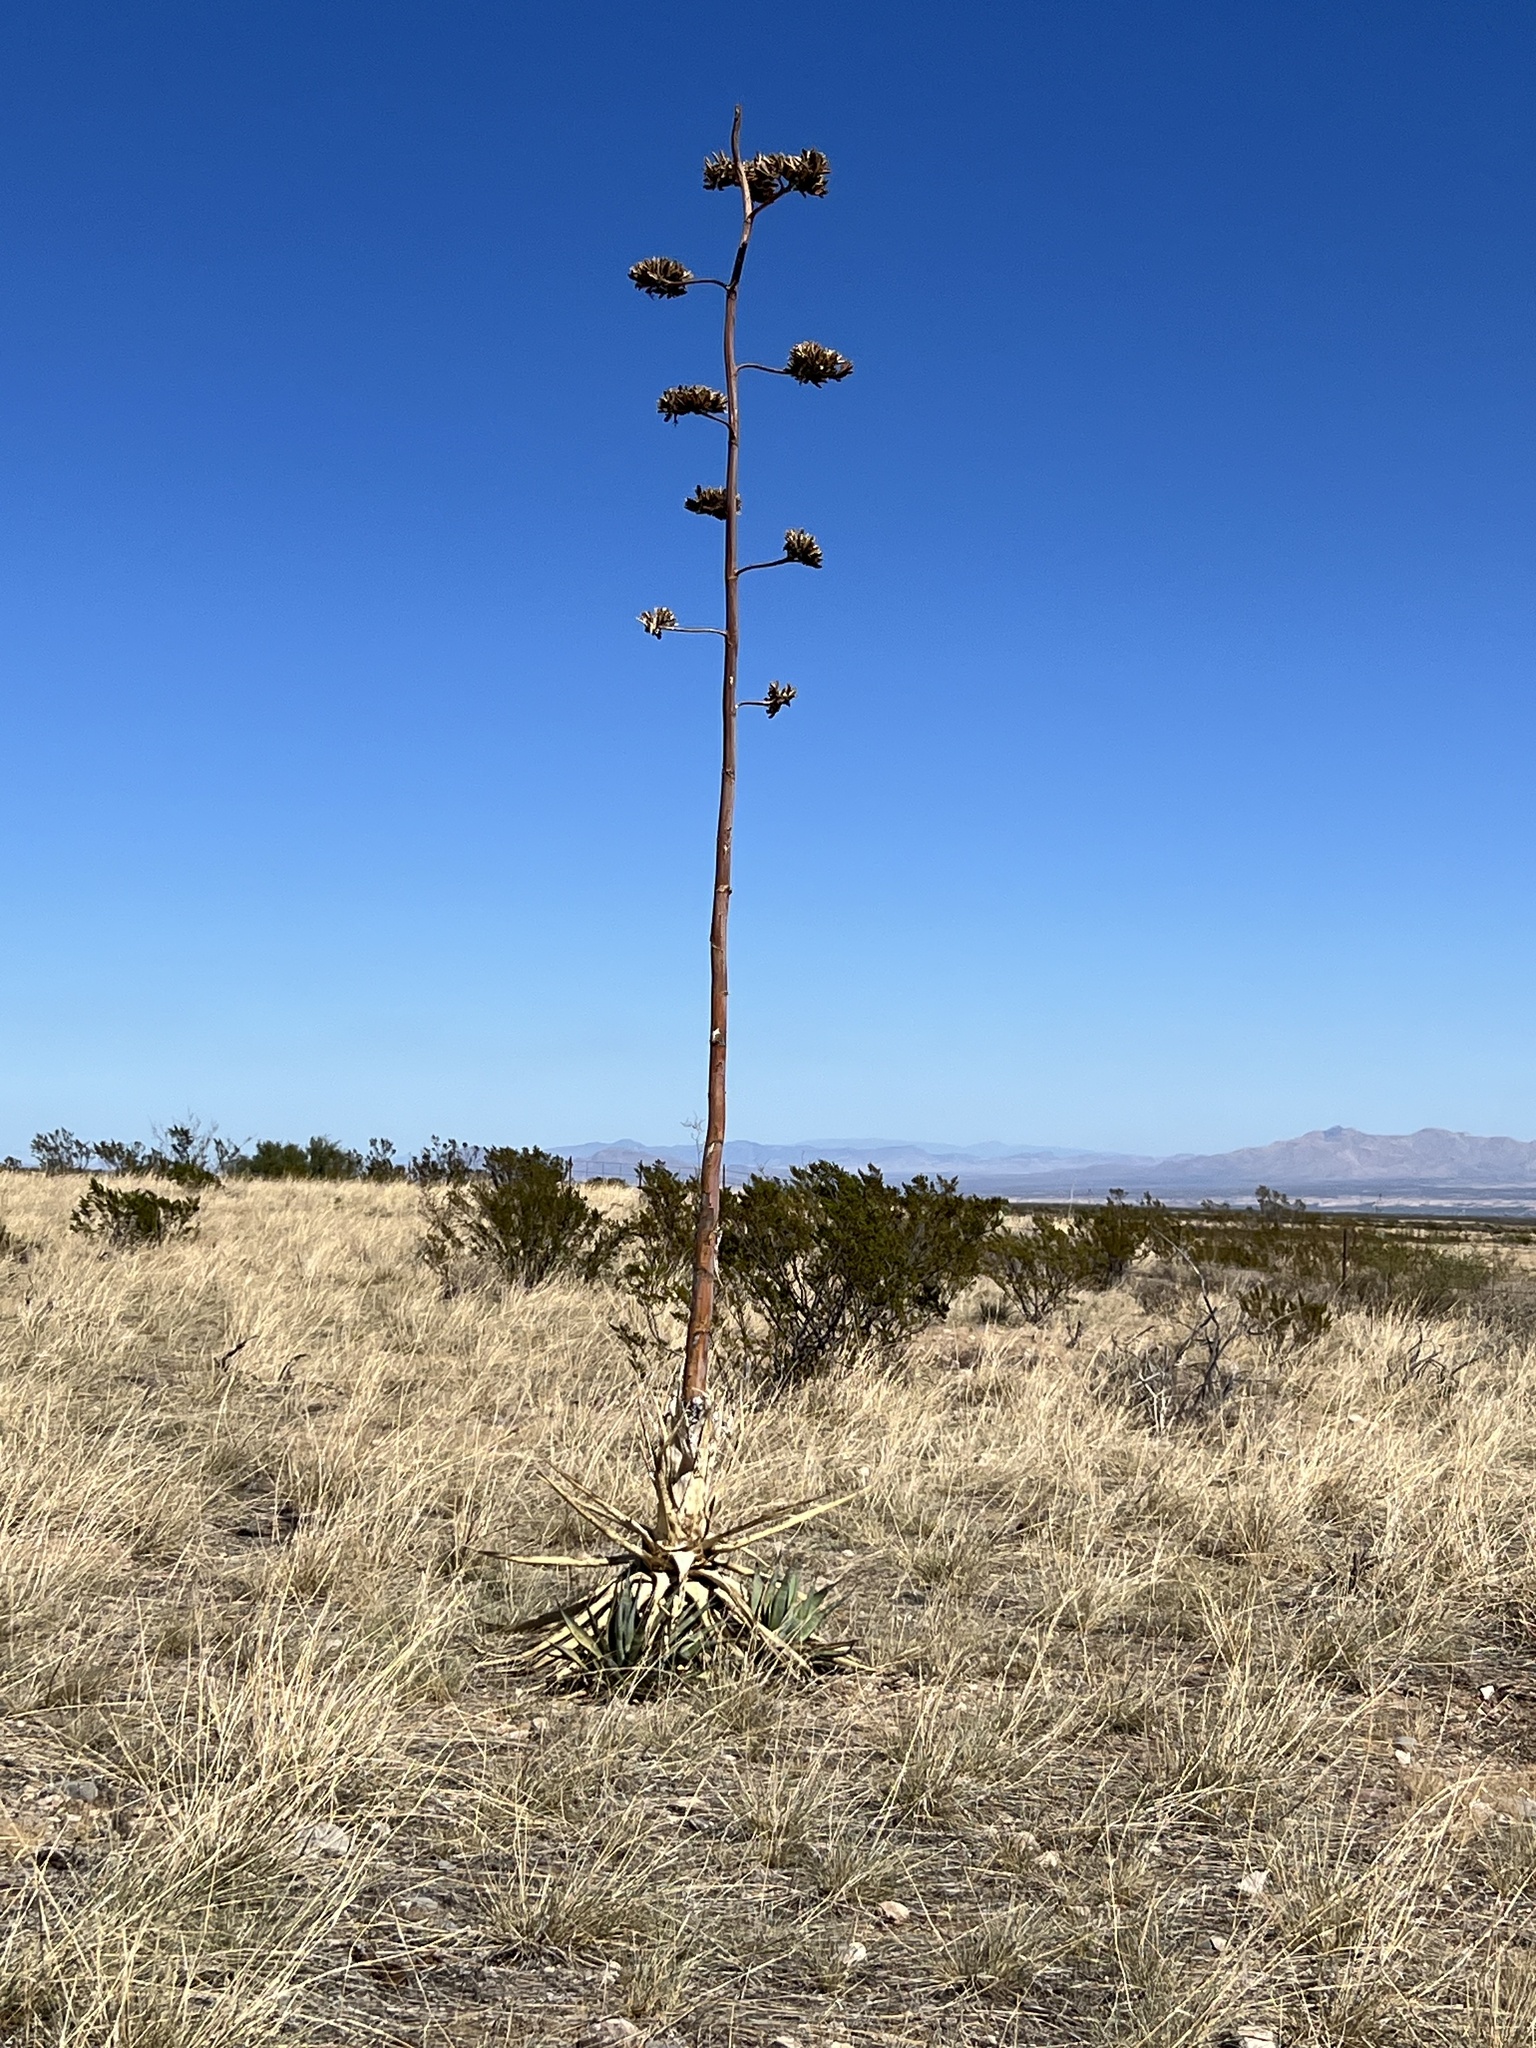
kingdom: Plantae
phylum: Tracheophyta
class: Liliopsida
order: Asparagales
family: Asparagaceae
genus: Agave
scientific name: Agave palmeri
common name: Palmer agave
